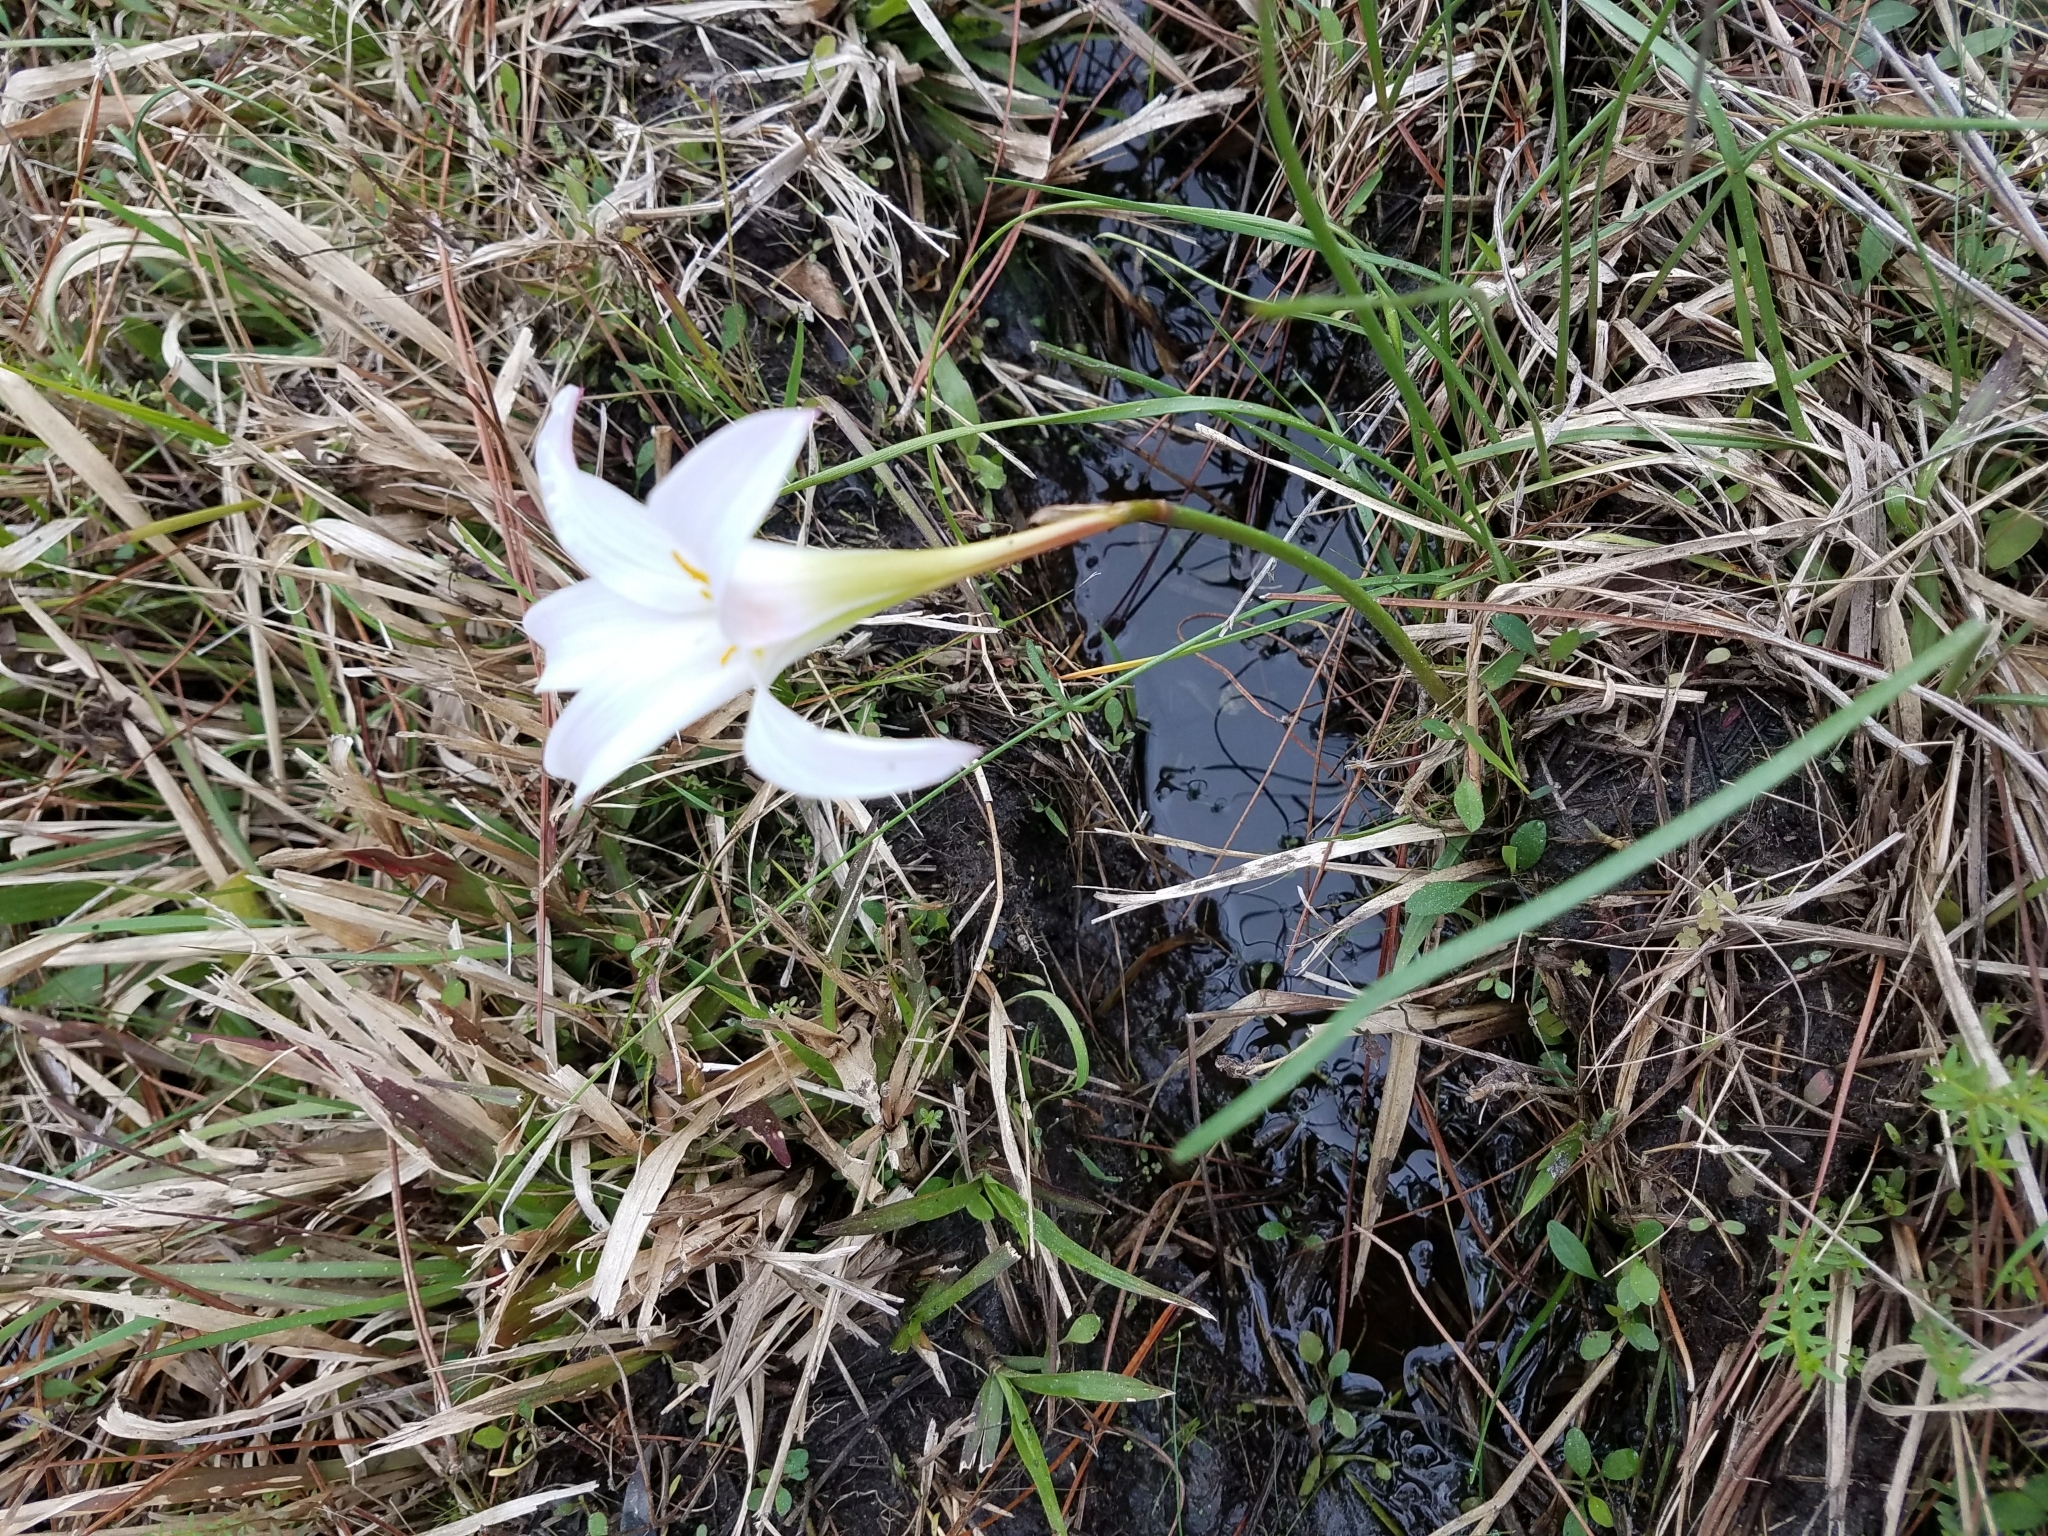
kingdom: Plantae
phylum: Tracheophyta
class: Liliopsida
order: Asparagales
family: Amaryllidaceae
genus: Zephyranthes
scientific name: Zephyranthes atamasco
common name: Atamasco lily
